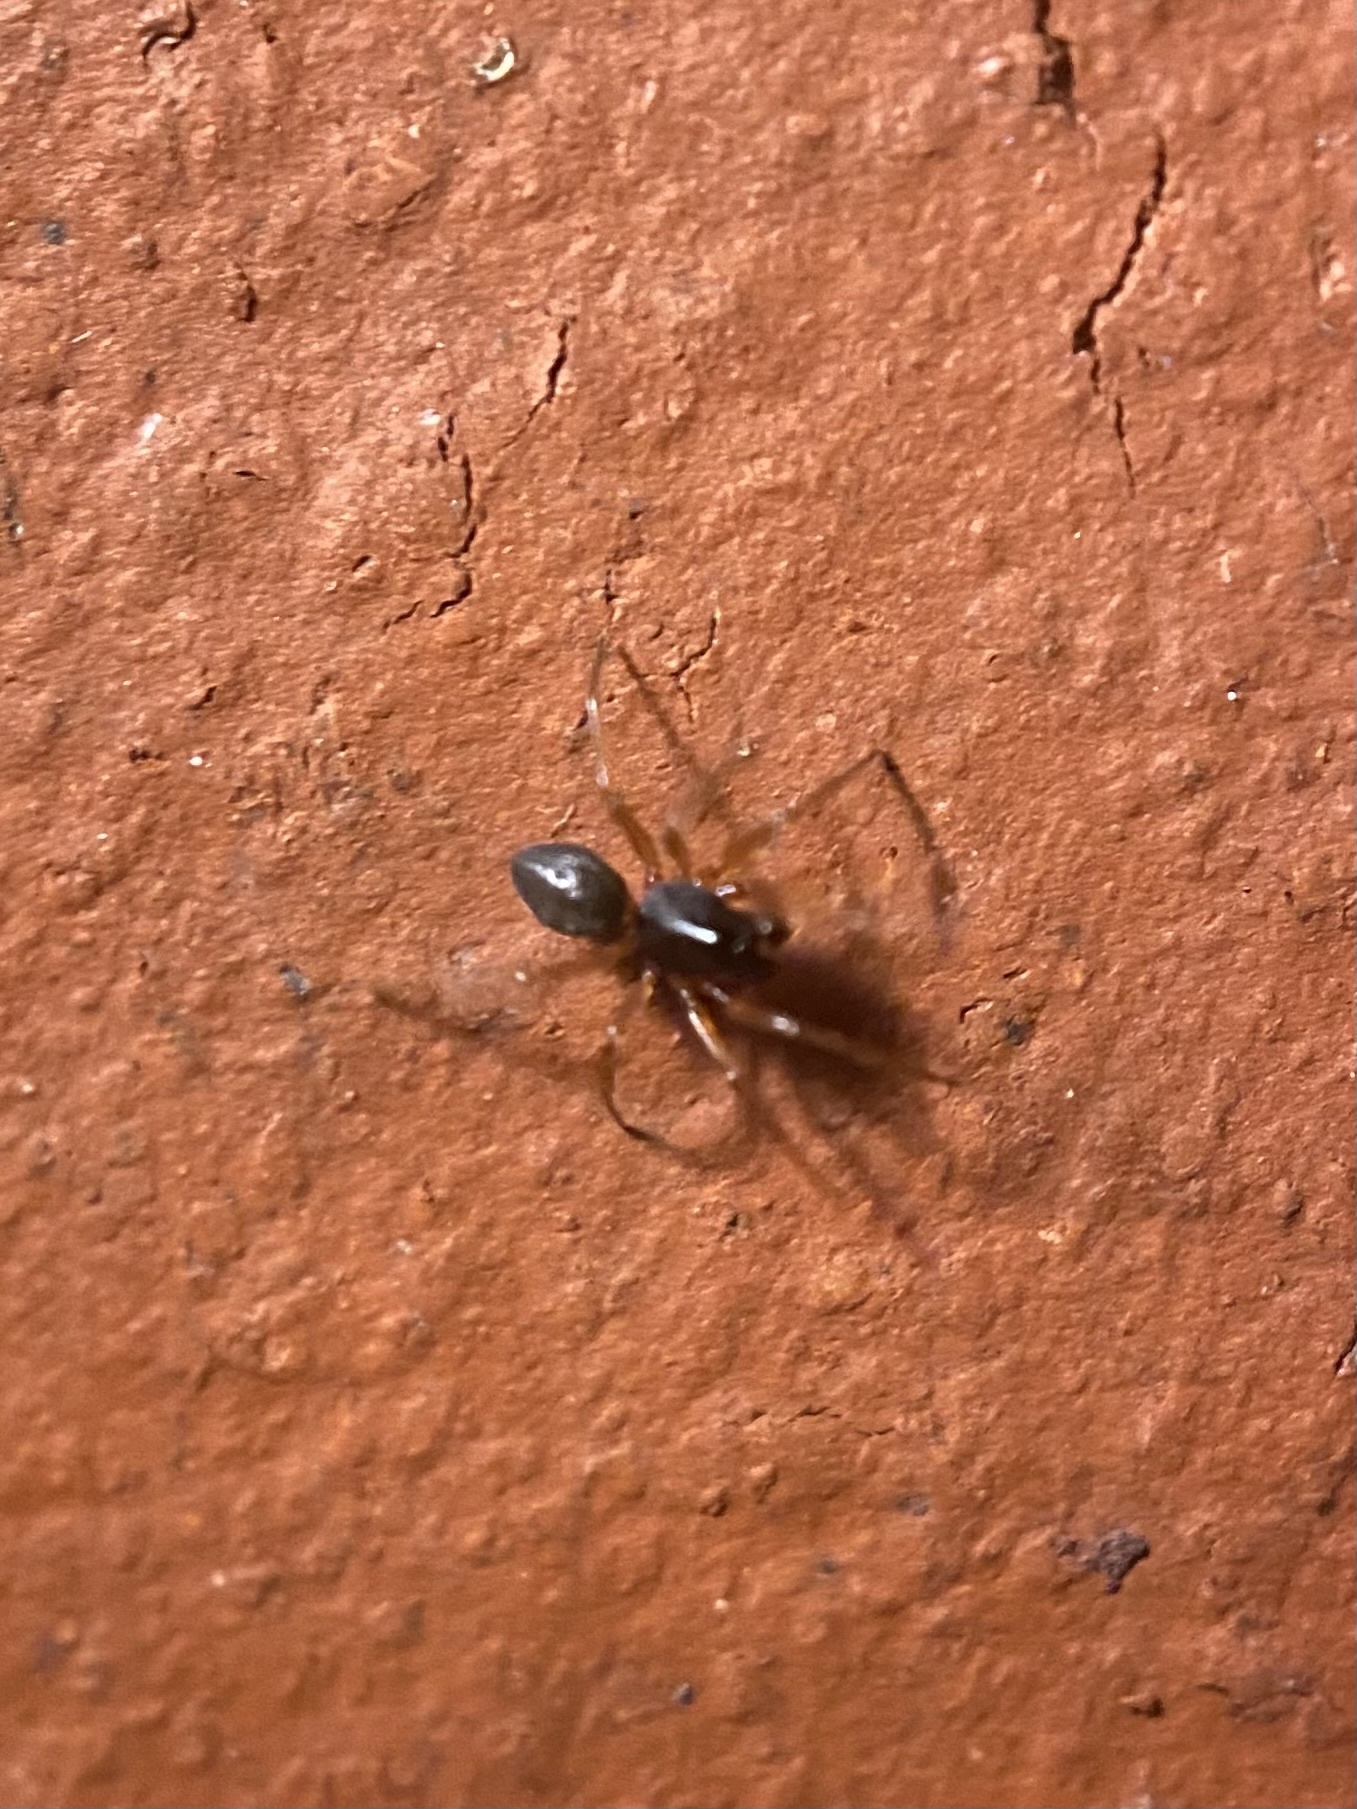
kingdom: Animalia
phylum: Arthropoda
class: Arachnida
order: Araneae
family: Trachelidae
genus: Trachelas
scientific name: Trachelas tranquillus
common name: Broad-faced sac spider
